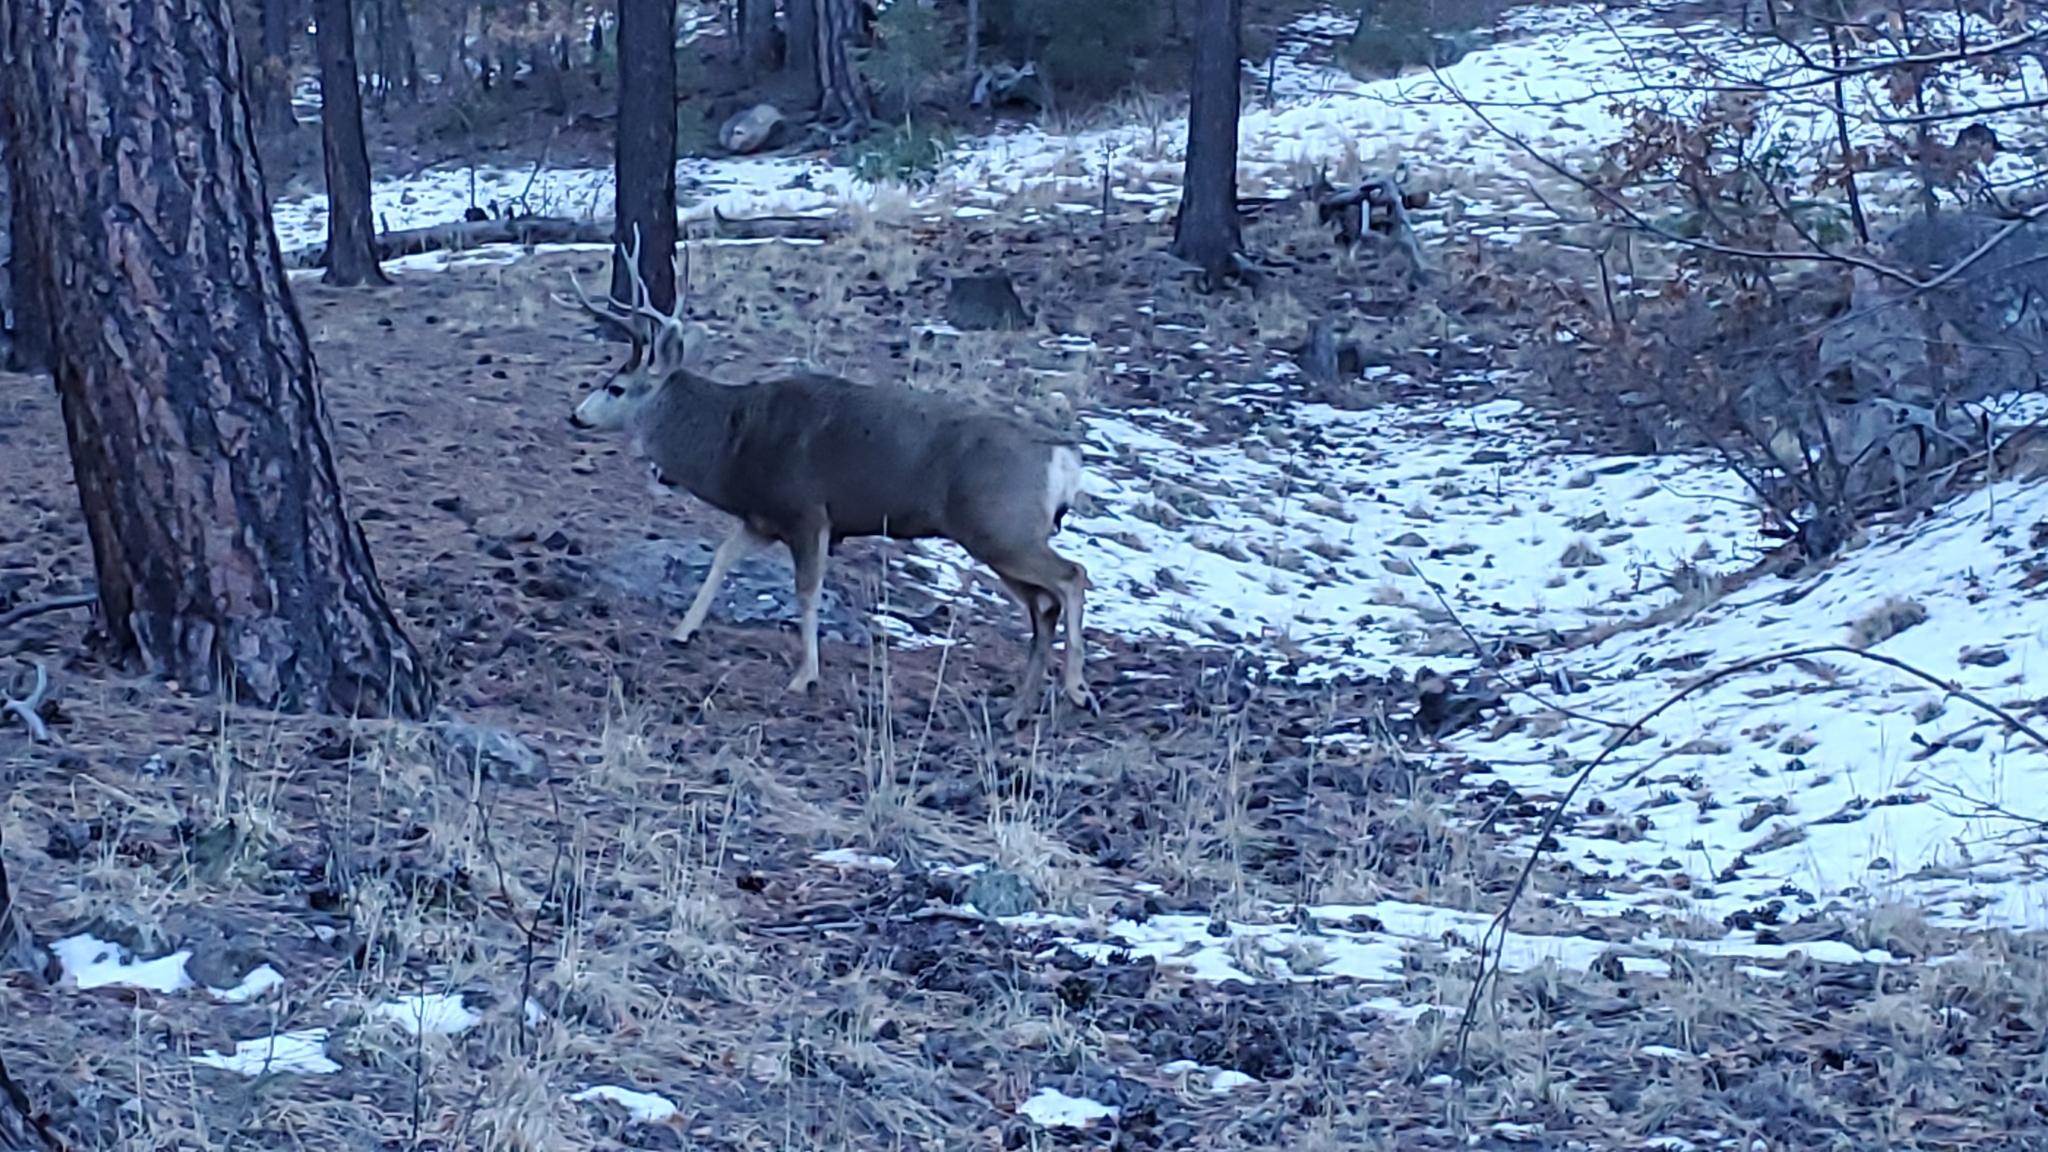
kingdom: Animalia
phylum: Chordata
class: Mammalia
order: Artiodactyla
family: Cervidae
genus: Odocoileus
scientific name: Odocoileus hemionus
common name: Mule deer
